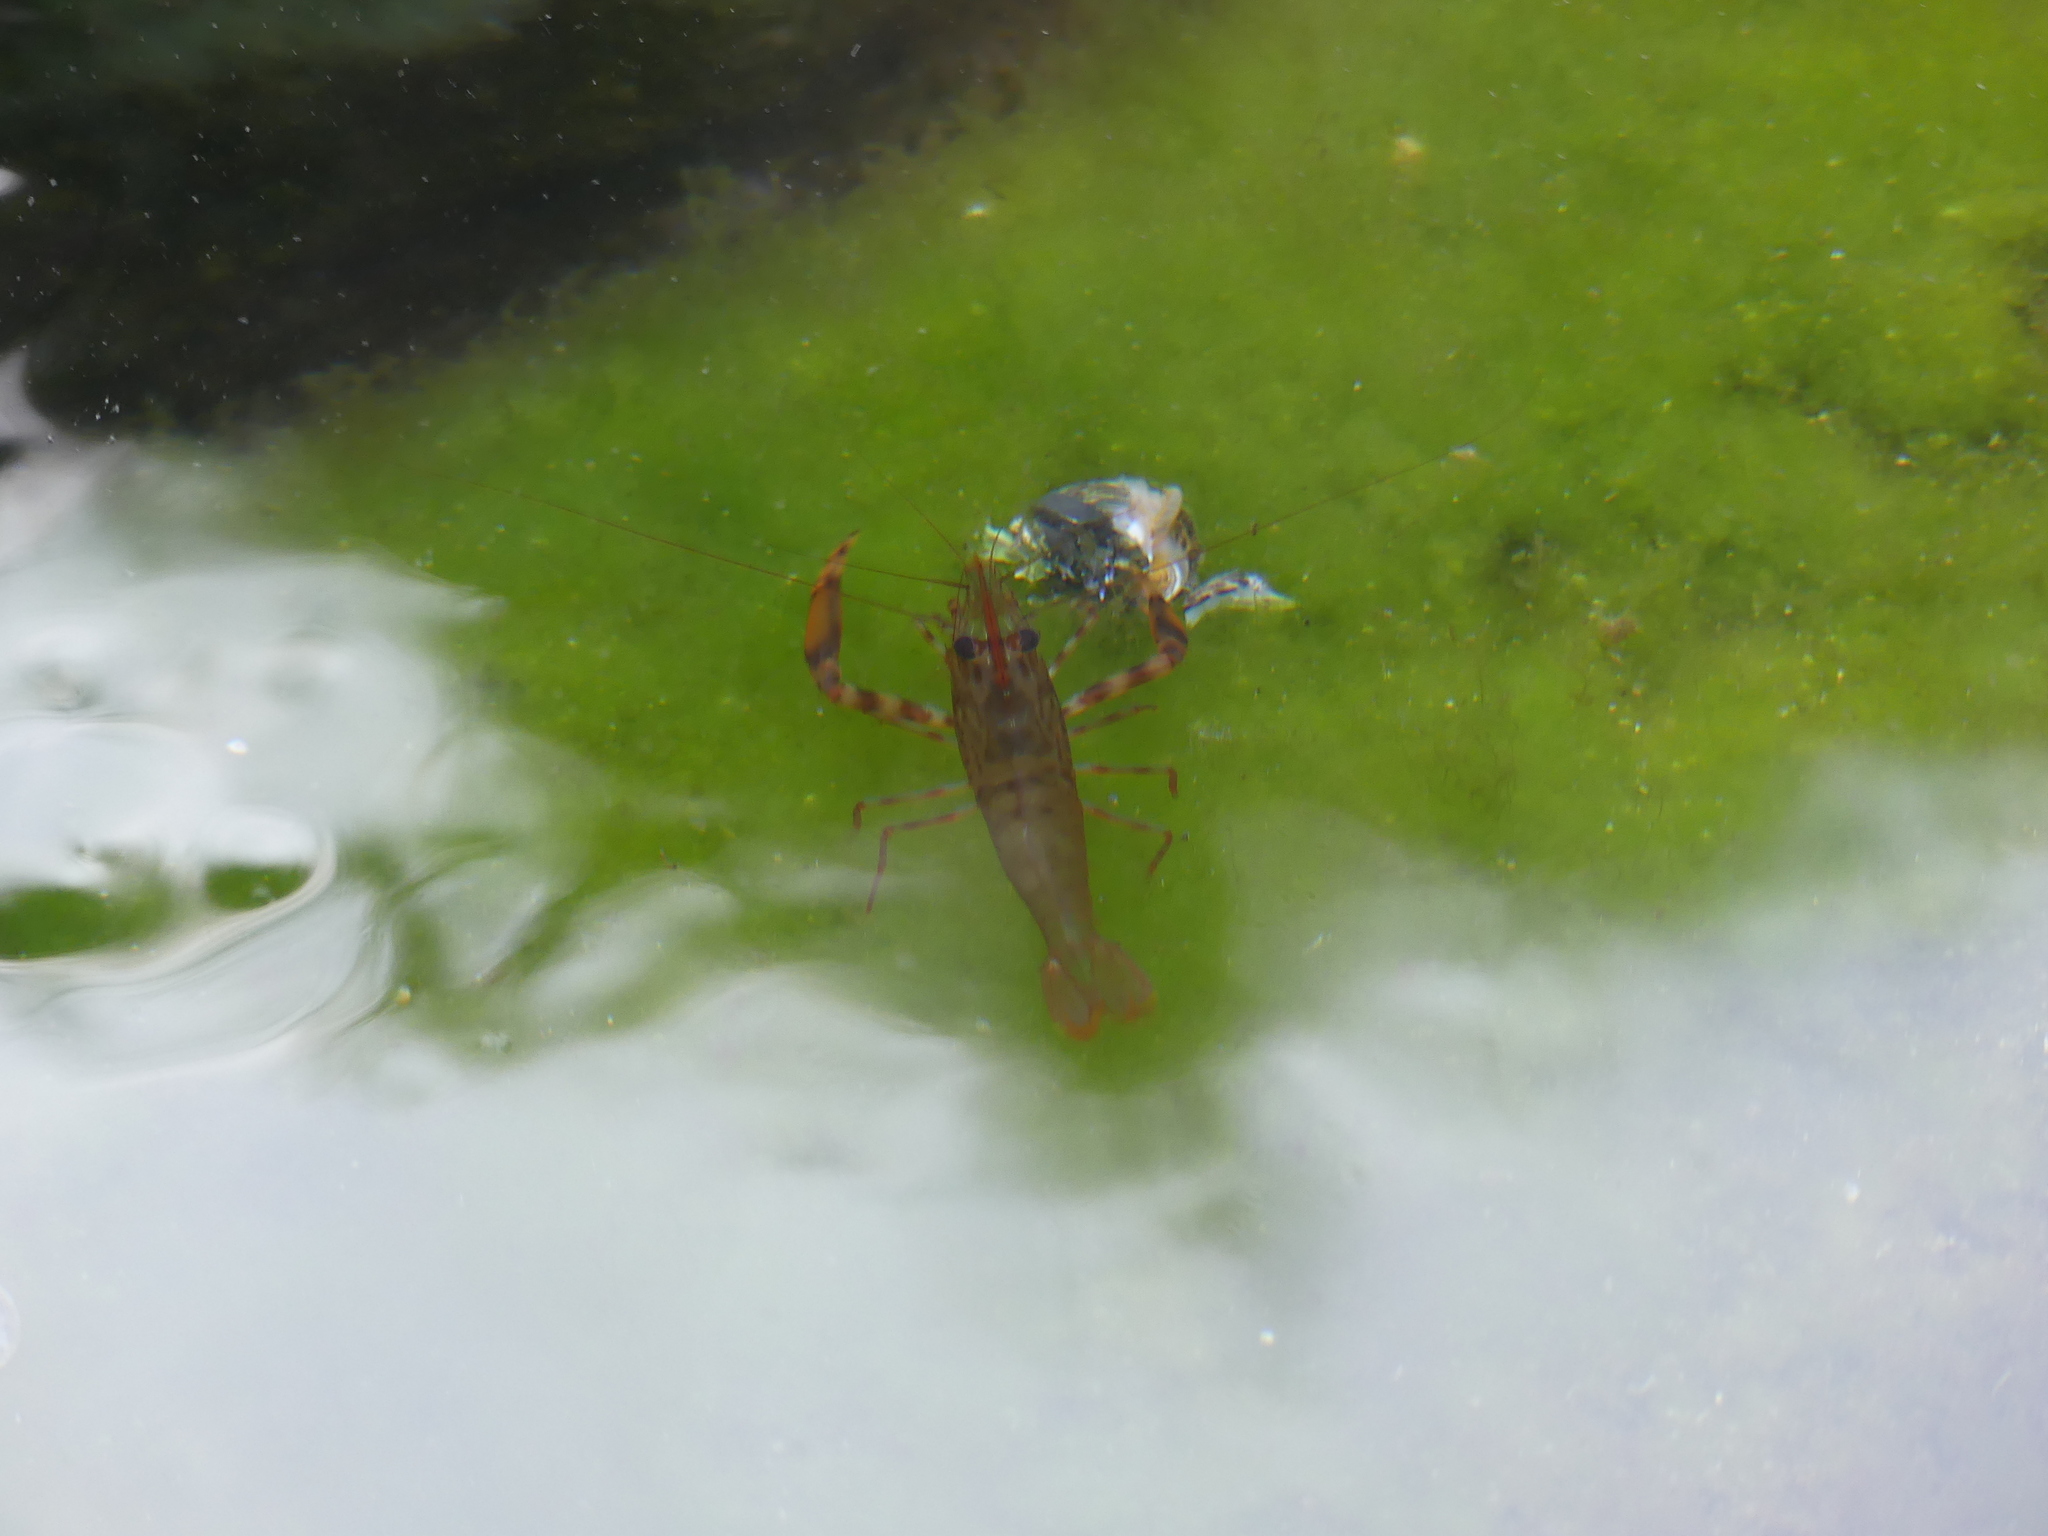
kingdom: Animalia
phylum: Arthropoda
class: Malacostraca
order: Decapoda
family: Palaemonidae
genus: Brachycarpus
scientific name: Brachycarpus biunguiculatus
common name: Two-clawed shrimp
